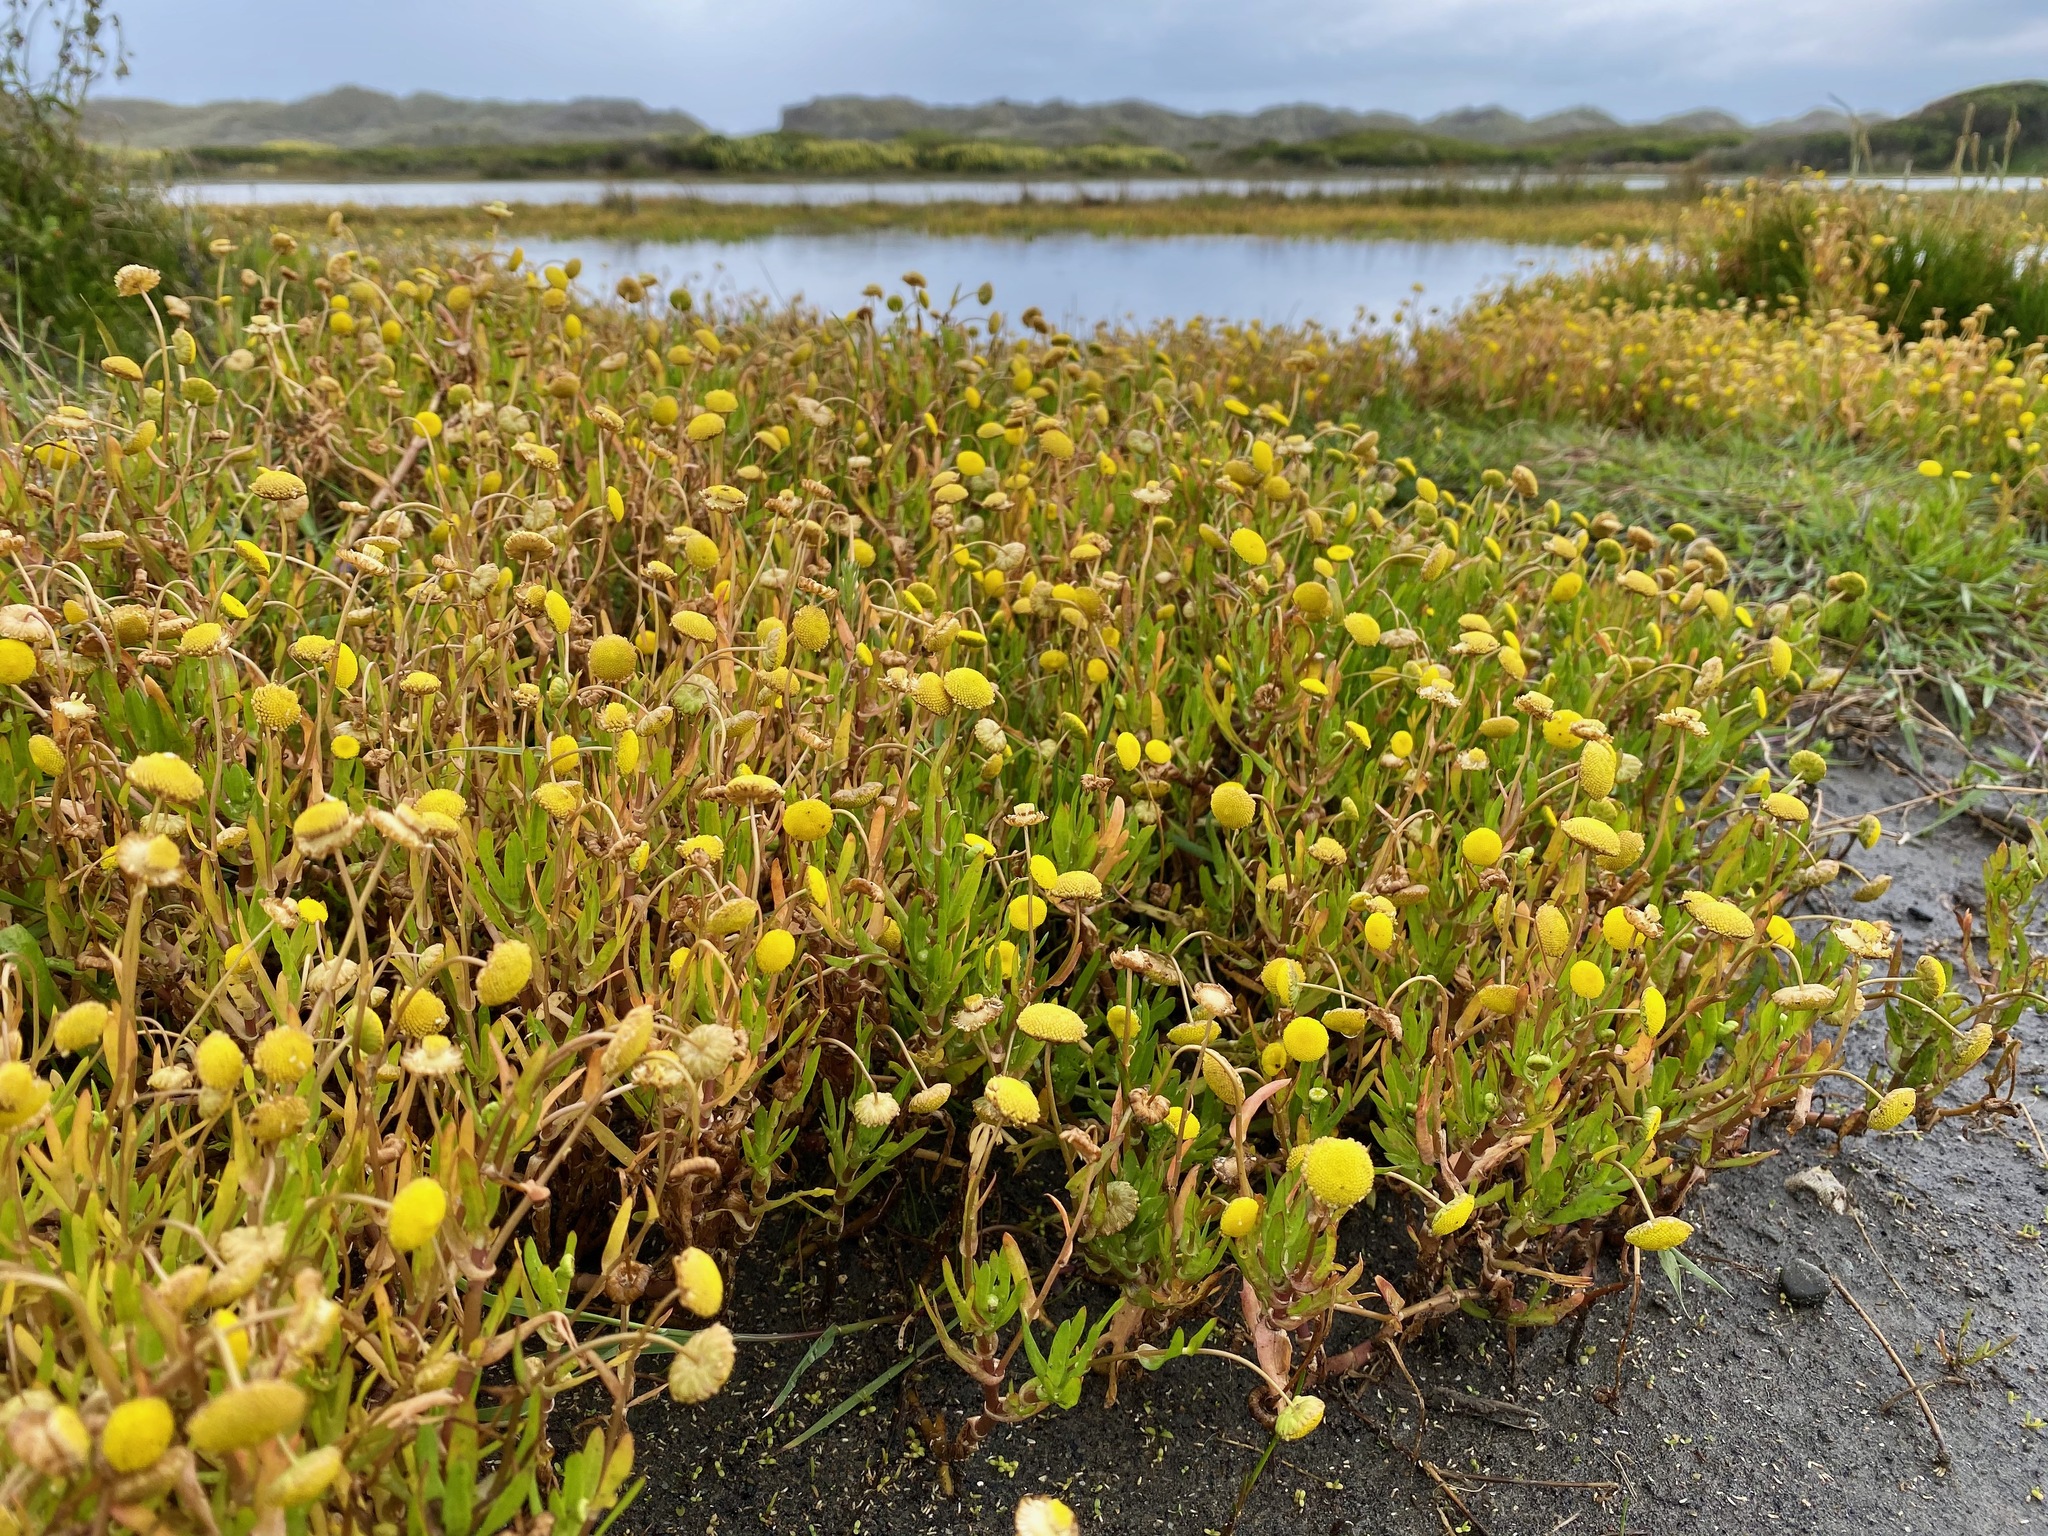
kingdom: Plantae
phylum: Tracheophyta
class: Magnoliopsida
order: Asterales
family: Asteraceae
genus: Cotula
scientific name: Cotula coronopifolia
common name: Buttonweed
